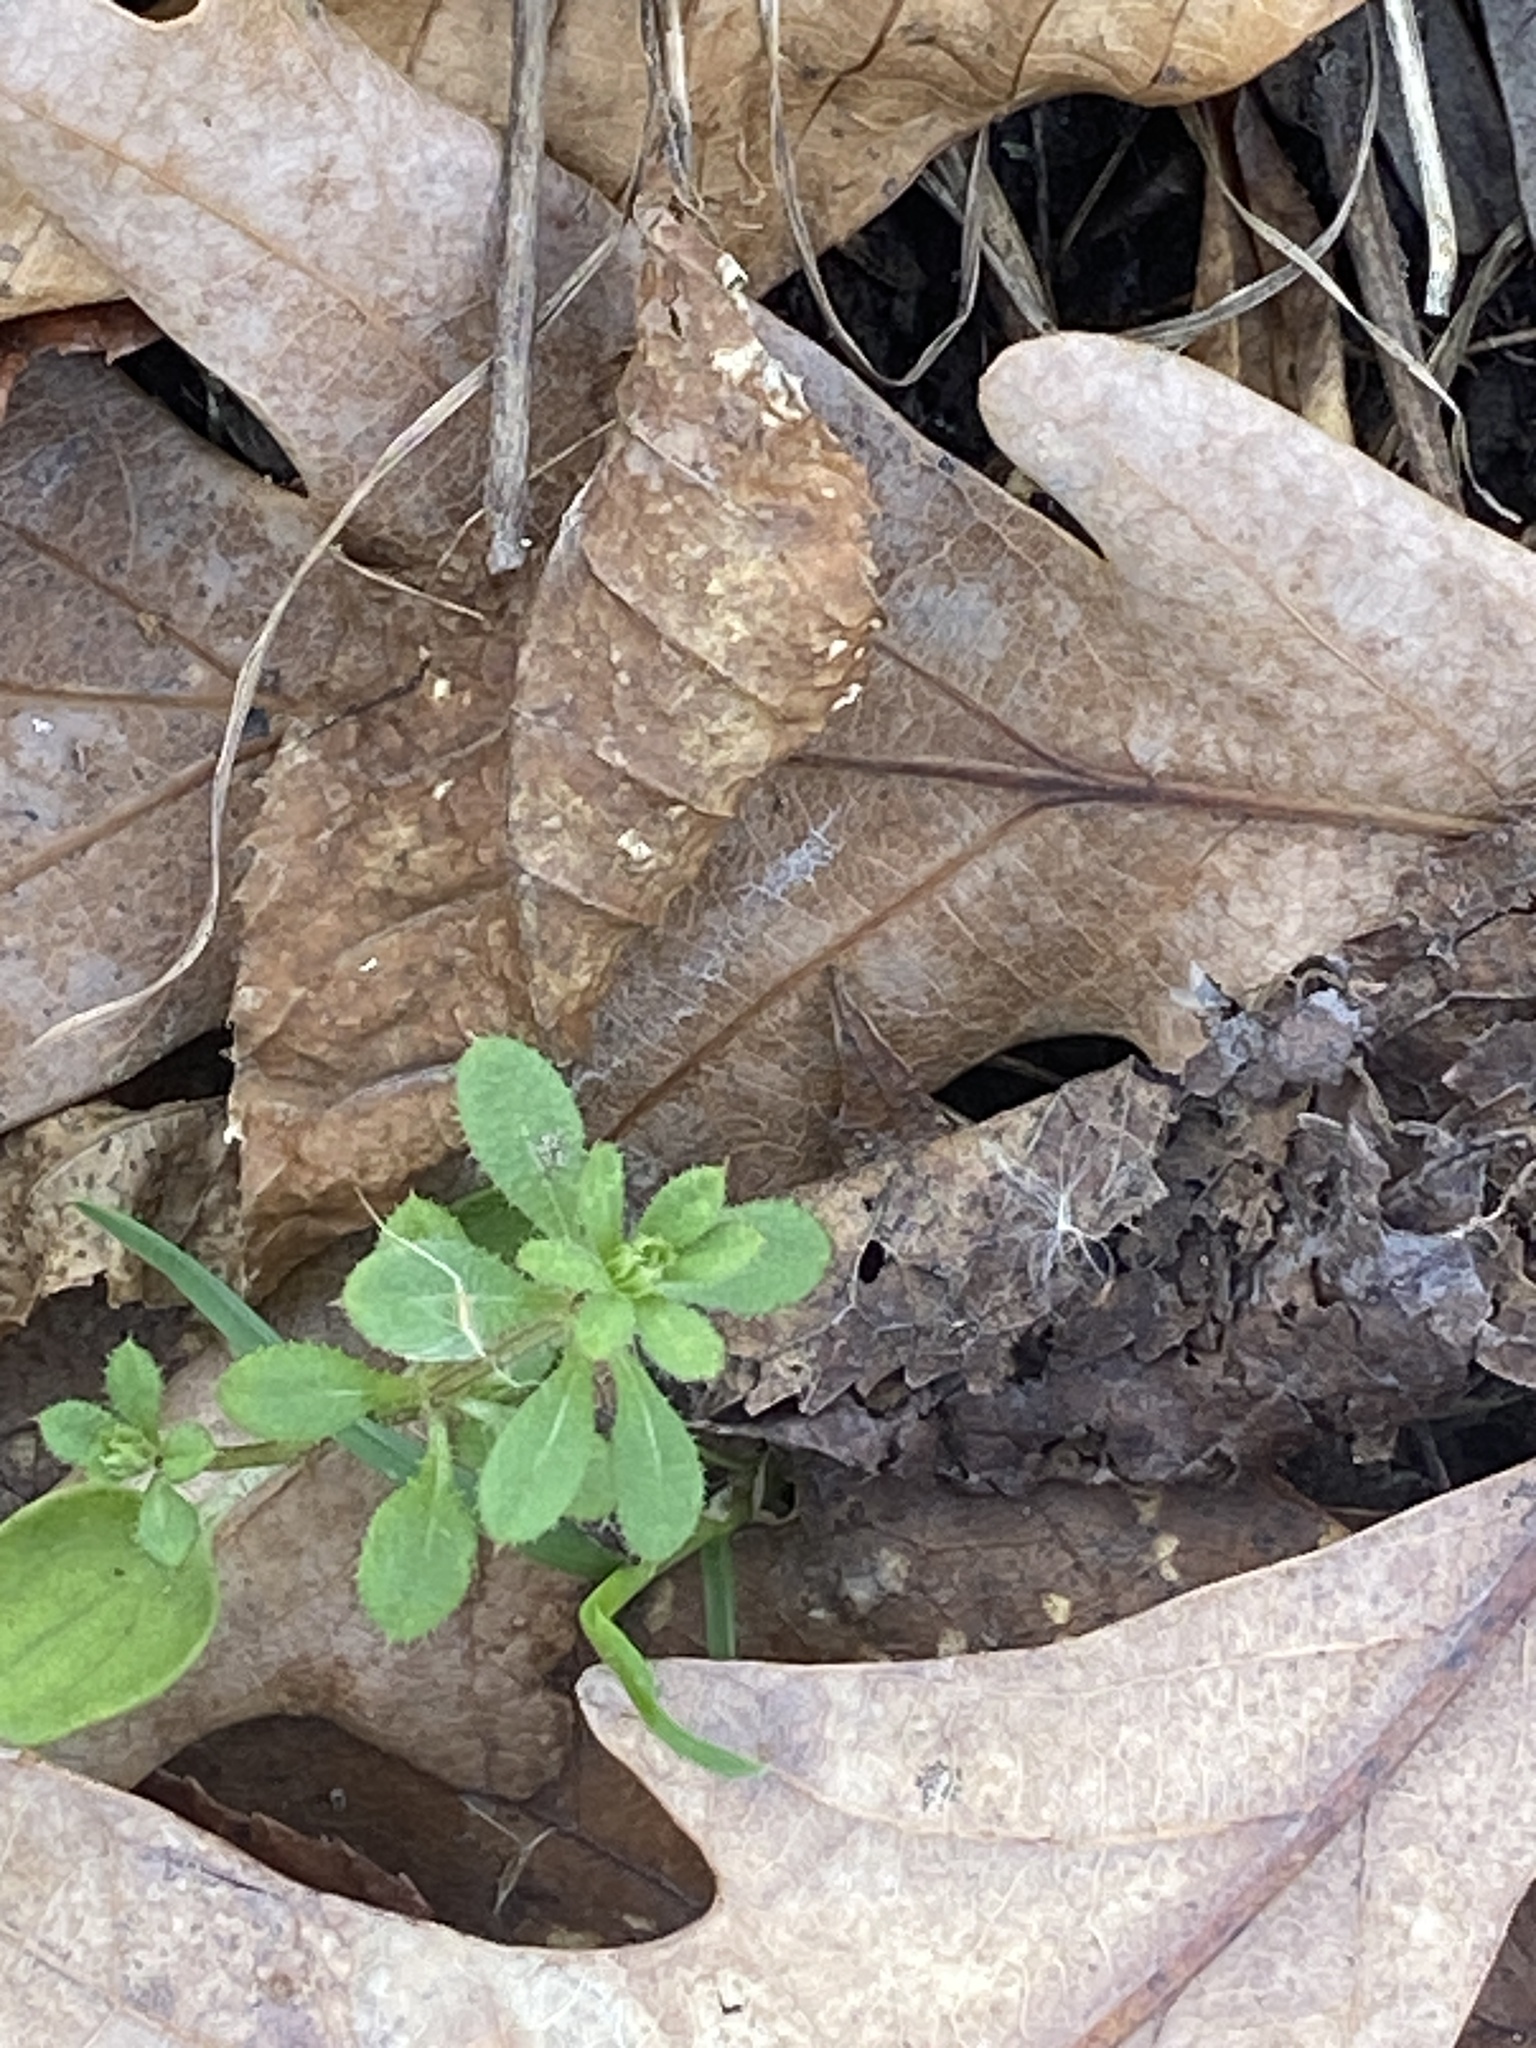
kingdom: Plantae
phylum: Tracheophyta
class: Magnoliopsida
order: Gentianales
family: Rubiaceae
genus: Galium
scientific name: Galium aparine
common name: Cleavers
